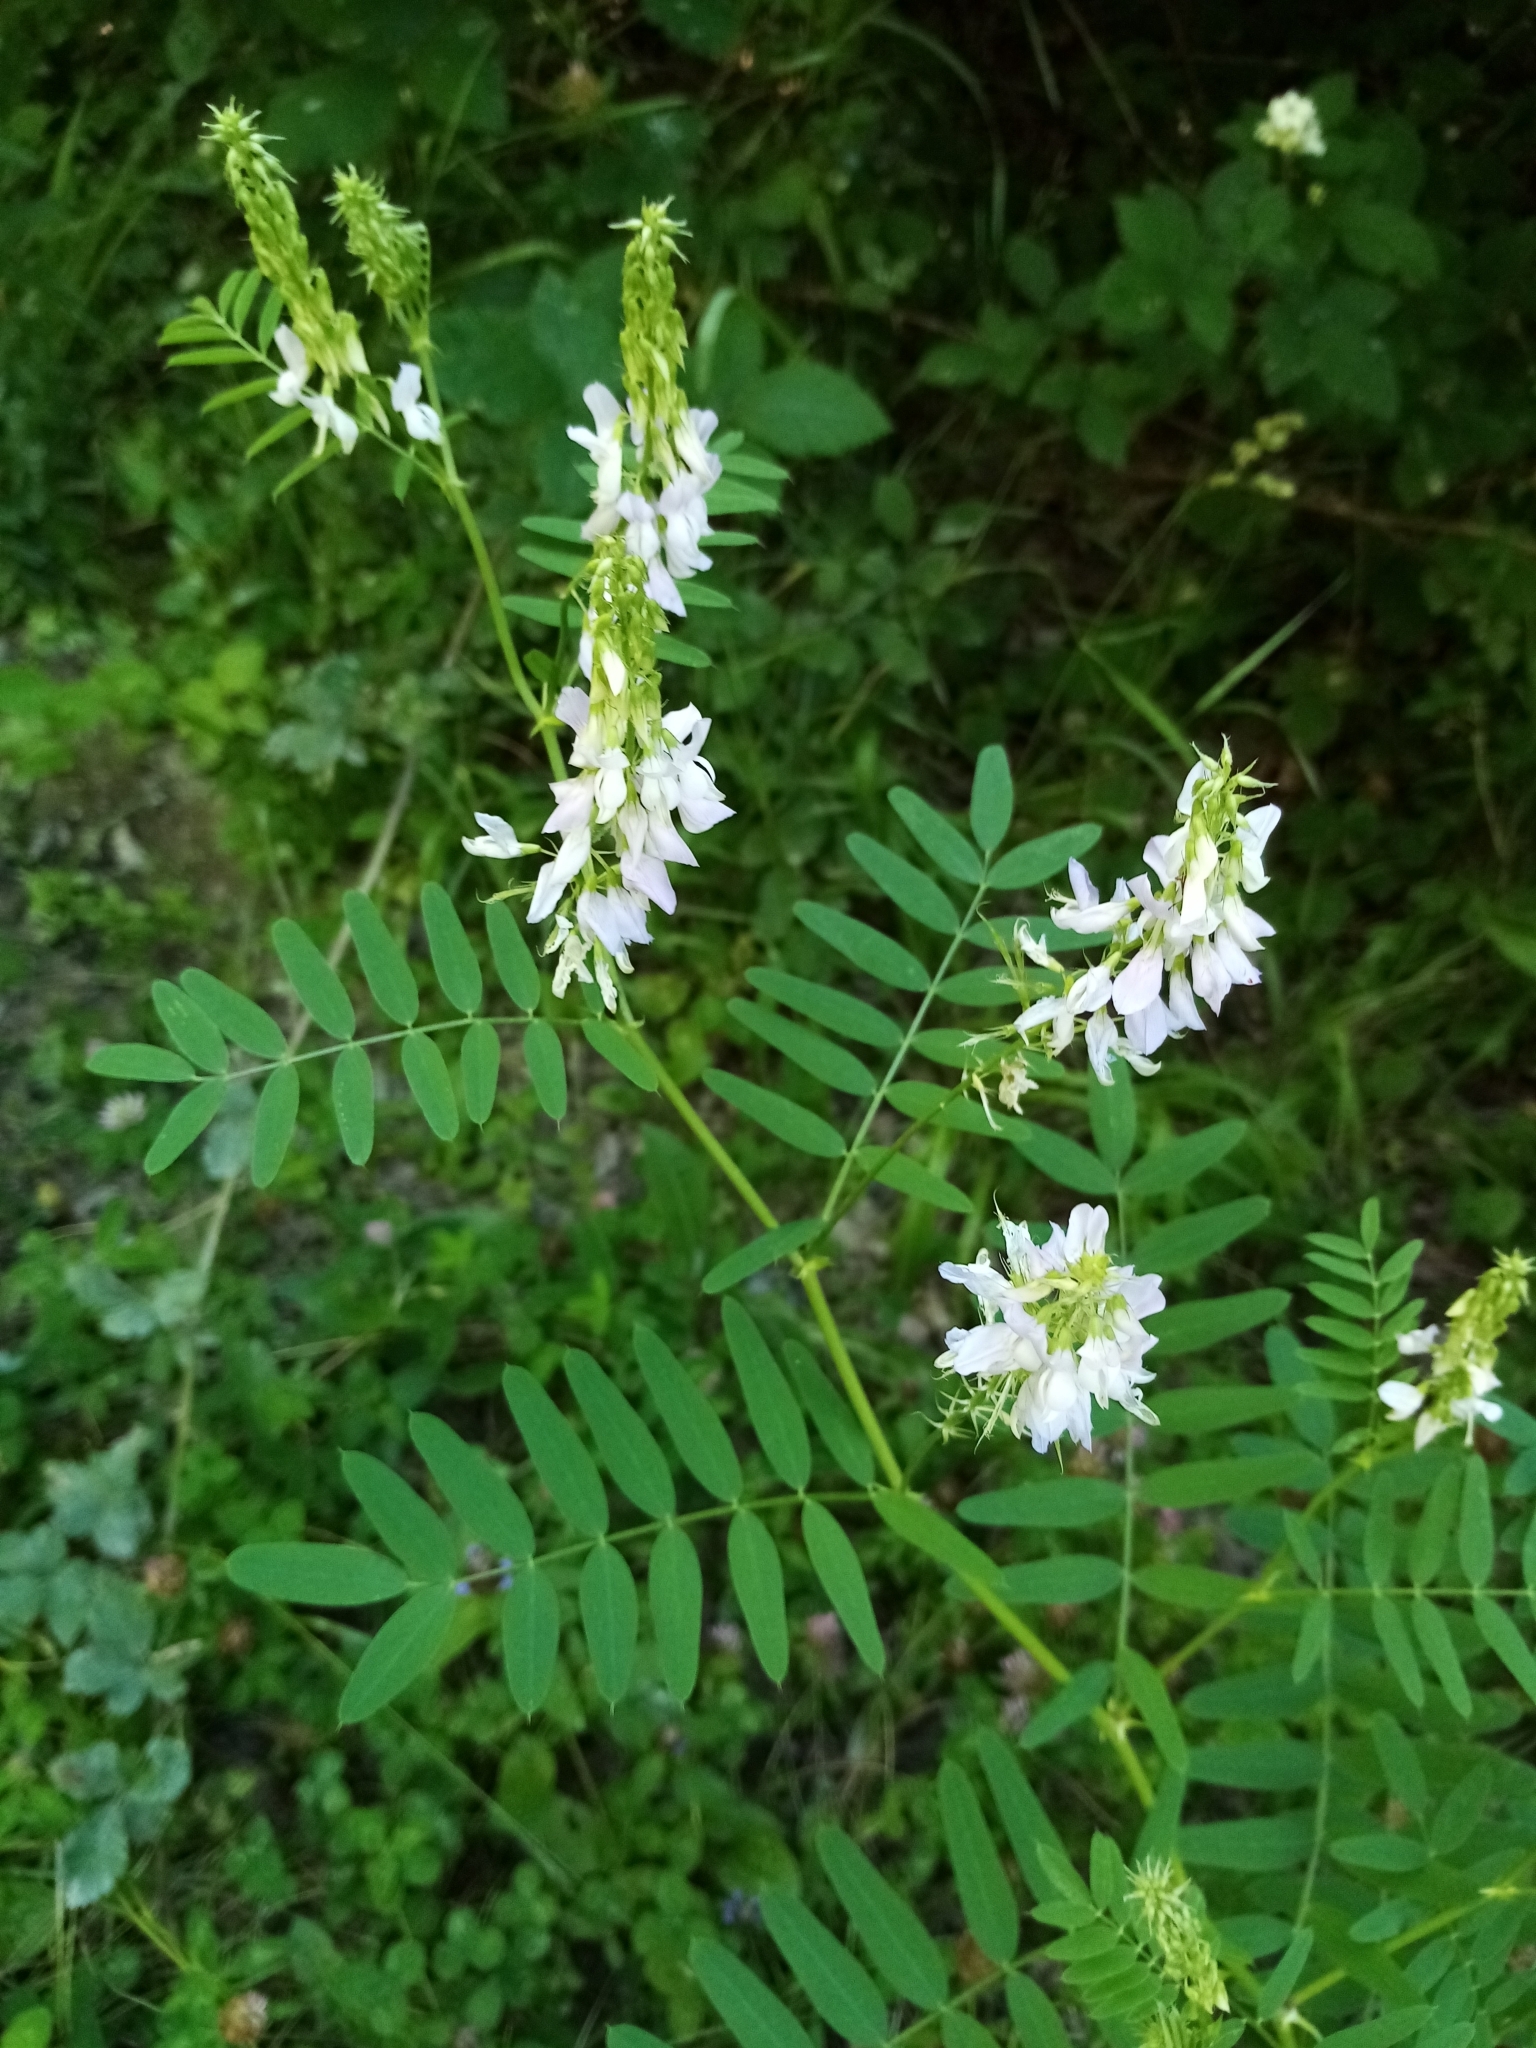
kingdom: Plantae
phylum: Tracheophyta
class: Magnoliopsida
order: Fabales
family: Fabaceae
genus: Galega
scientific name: Galega officinalis
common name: Goat's-rue
